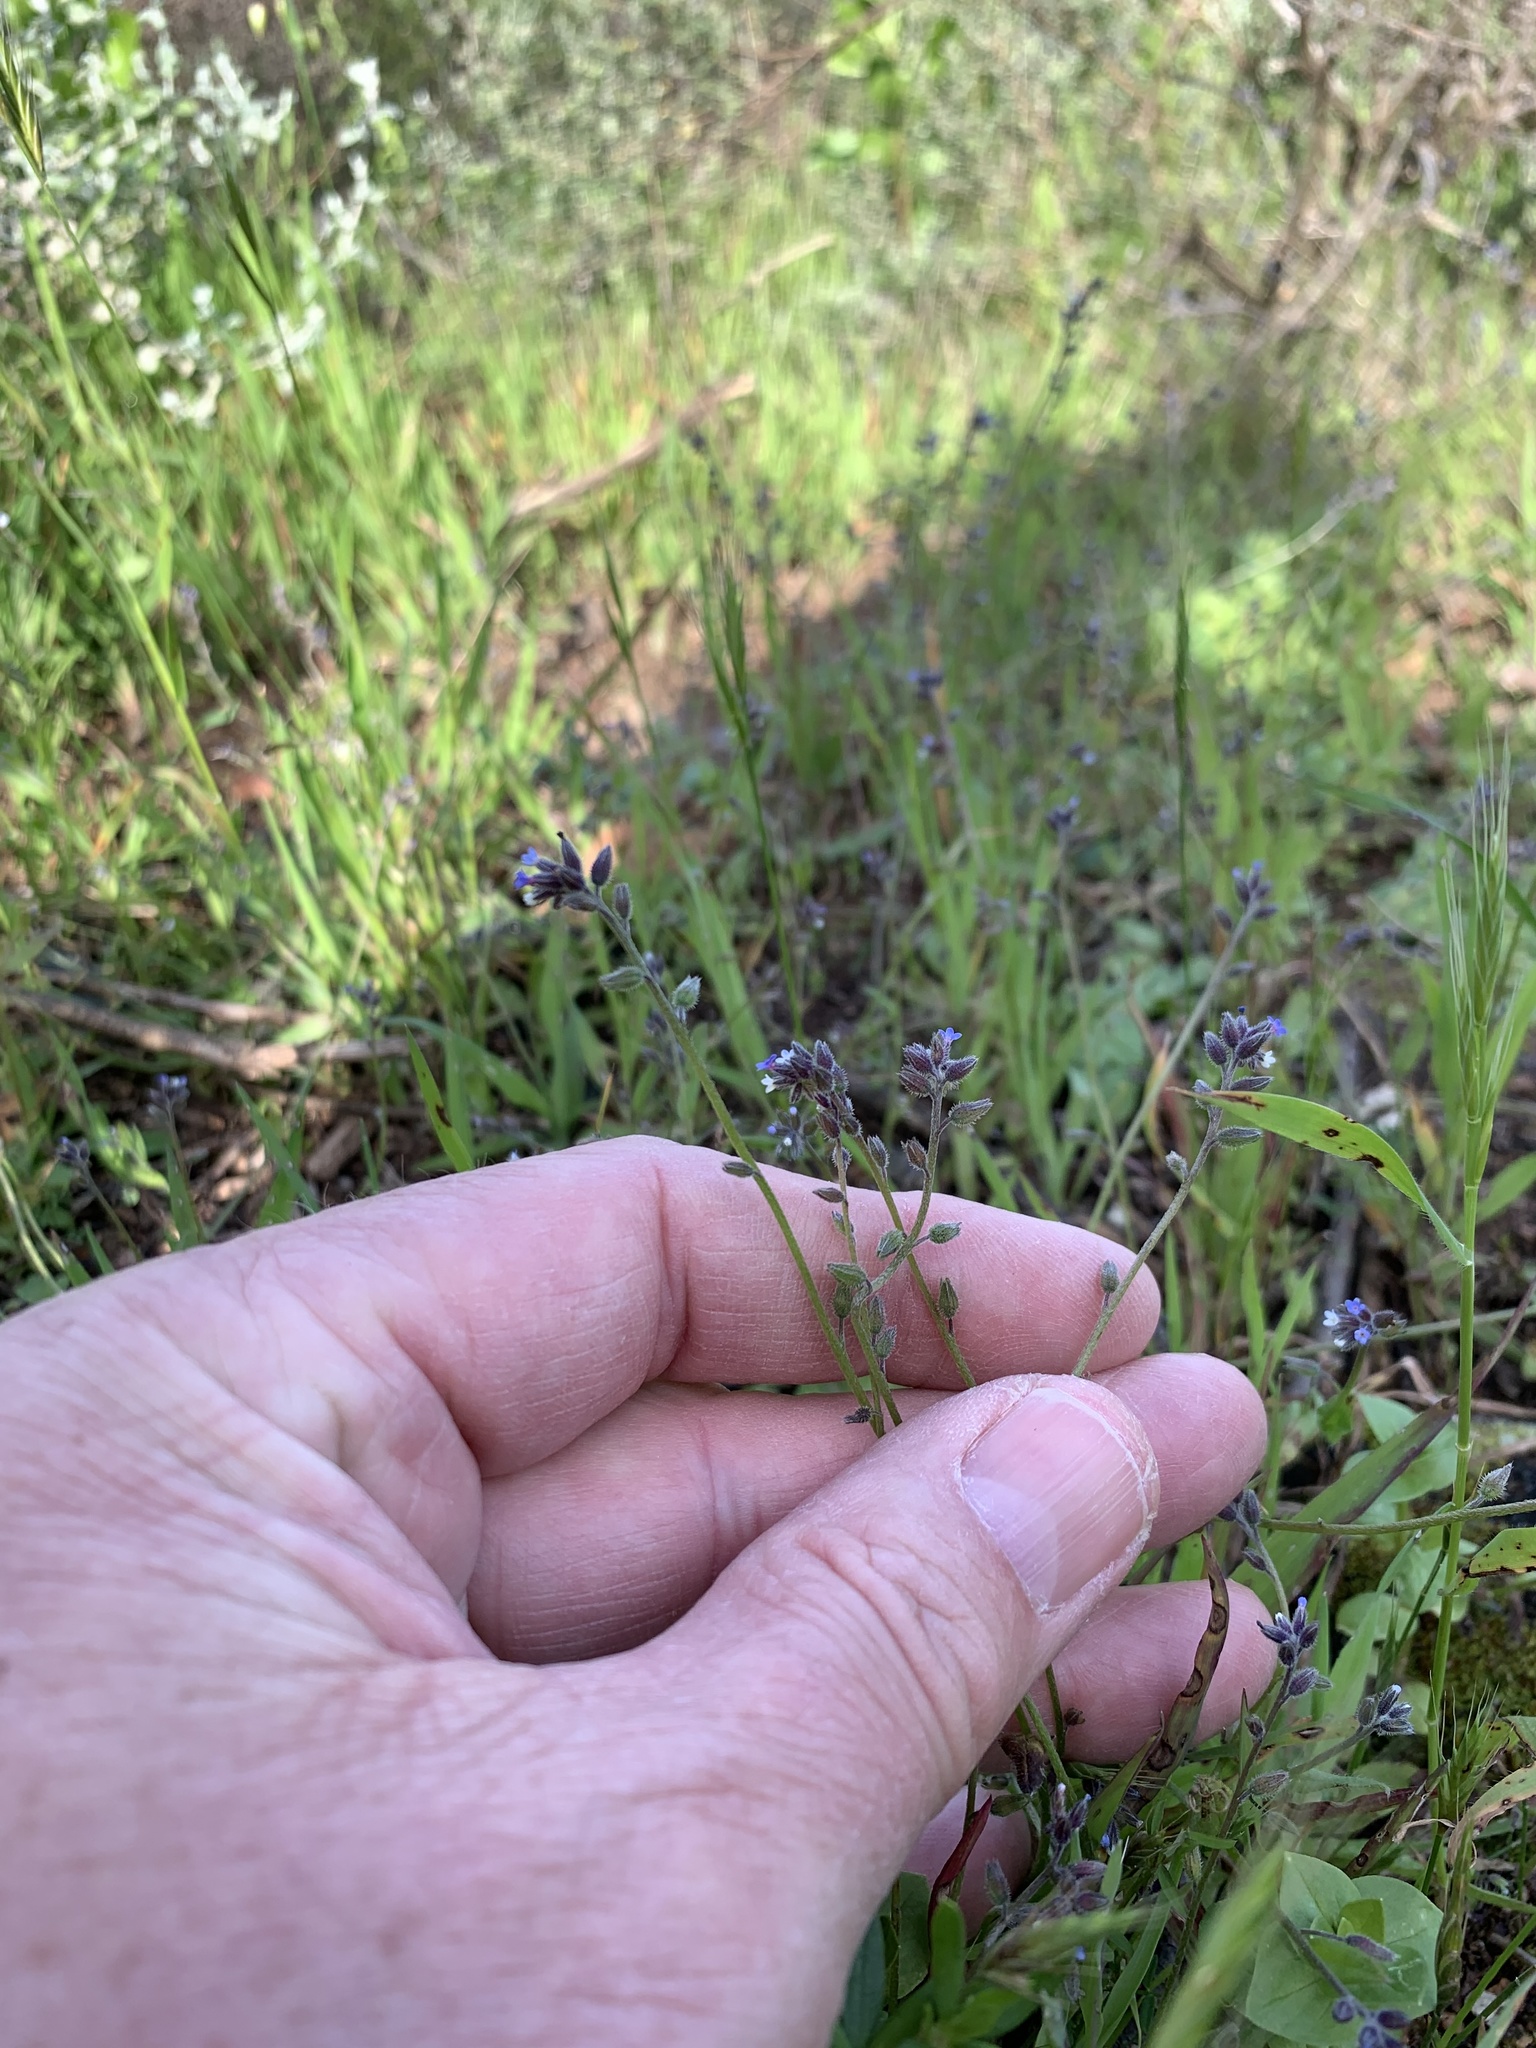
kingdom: Plantae
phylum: Tracheophyta
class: Magnoliopsida
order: Boraginales
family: Boraginaceae
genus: Myosotis
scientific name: Myosotis discolor
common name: Changing forget-me-not
